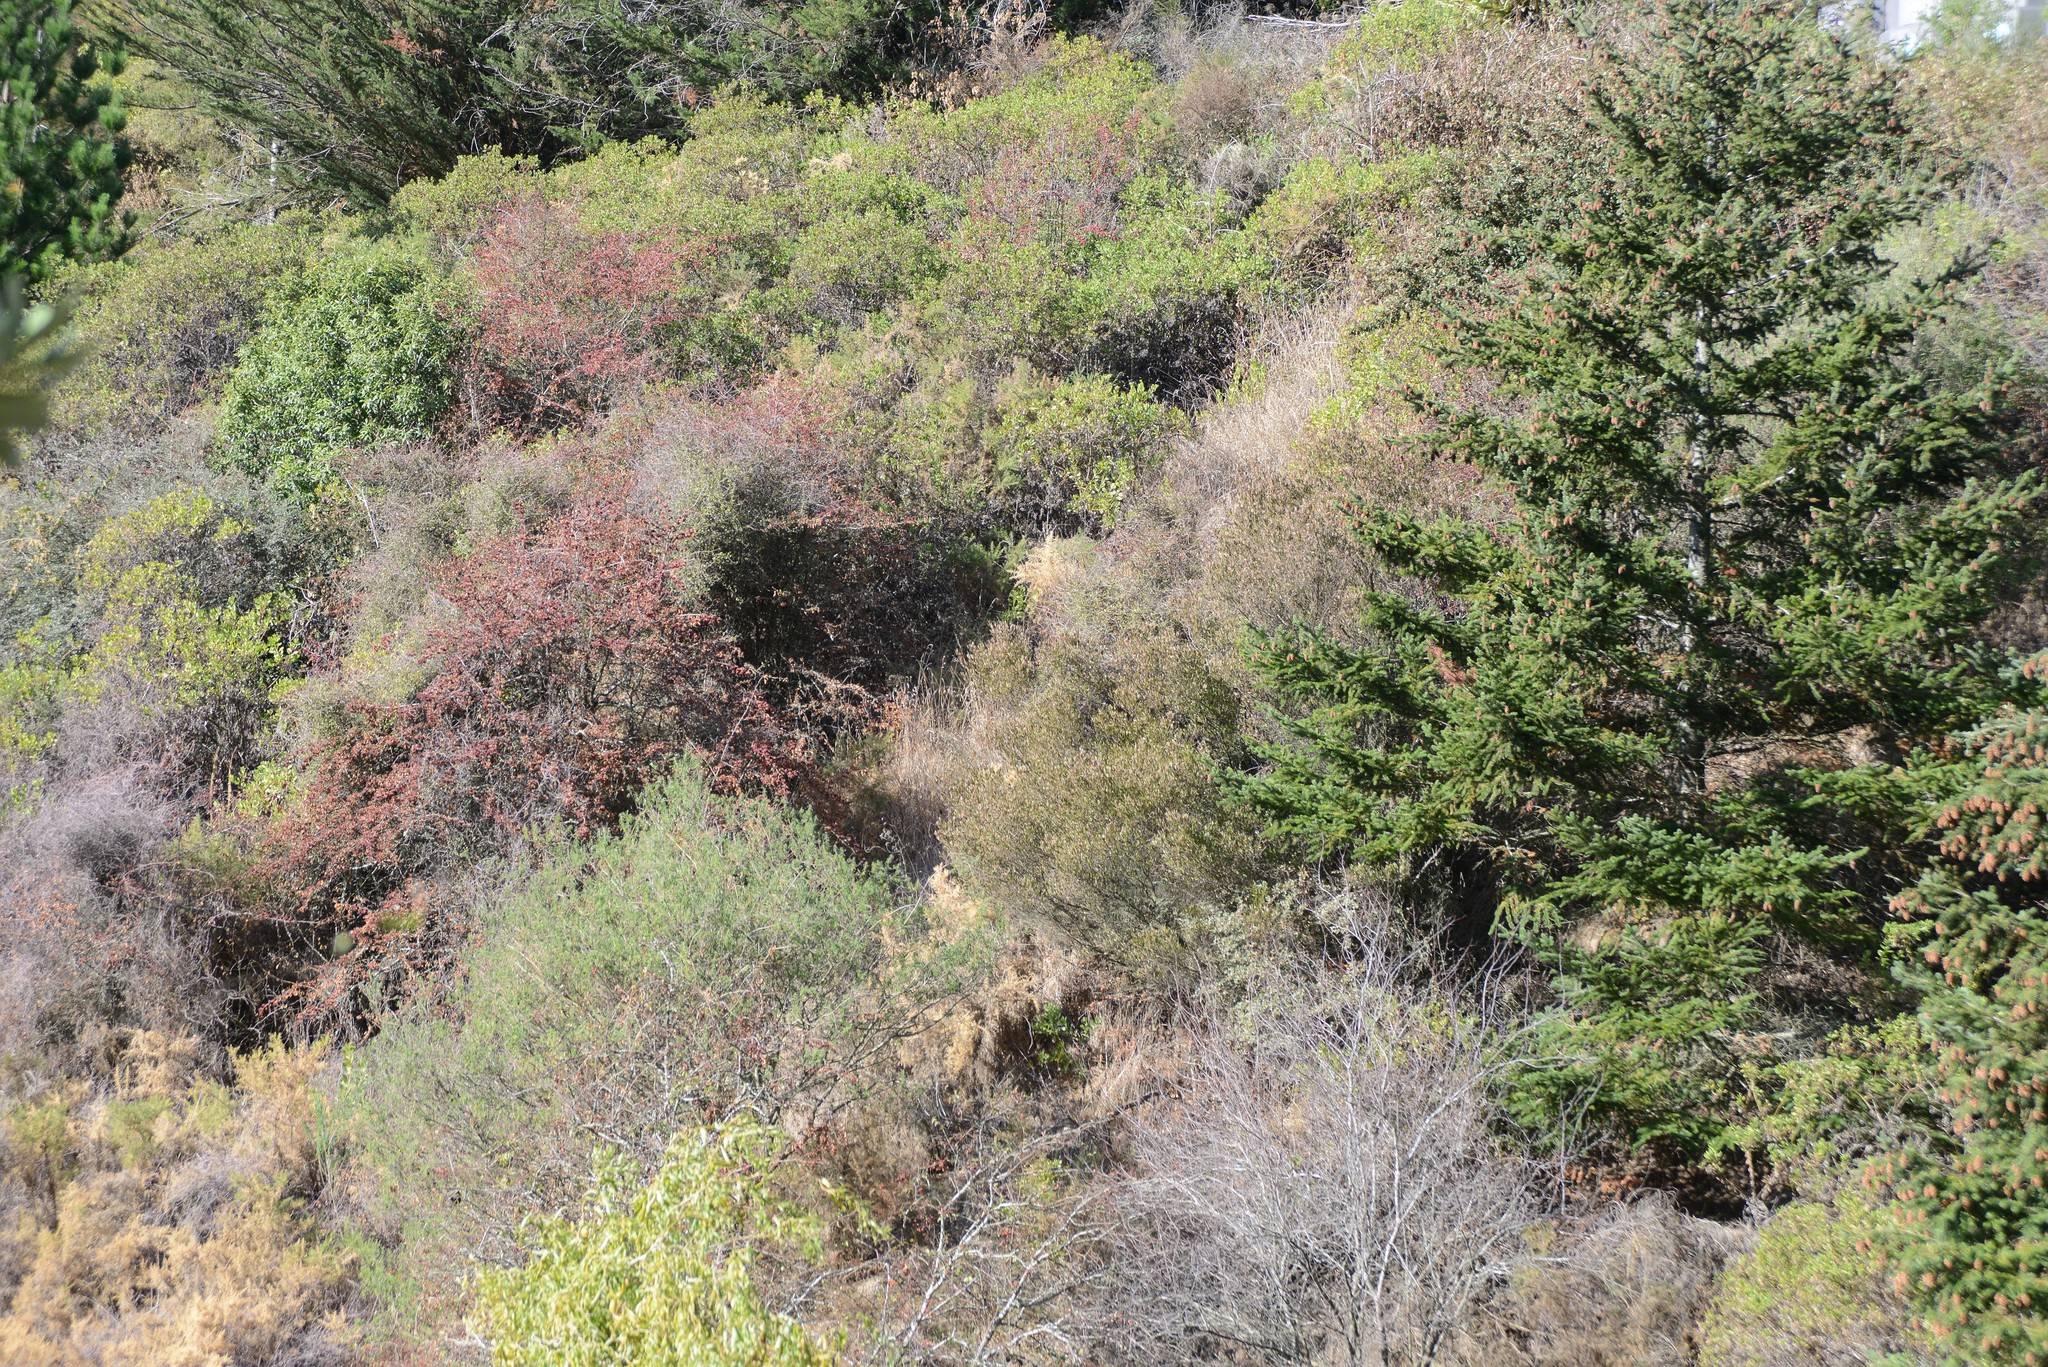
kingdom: Plantae
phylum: Tracheophyta
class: Magnoliopsida
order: Rosales
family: Rosaceae
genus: Crataegus
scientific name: Crataegus monogyna
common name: Hawthorn
